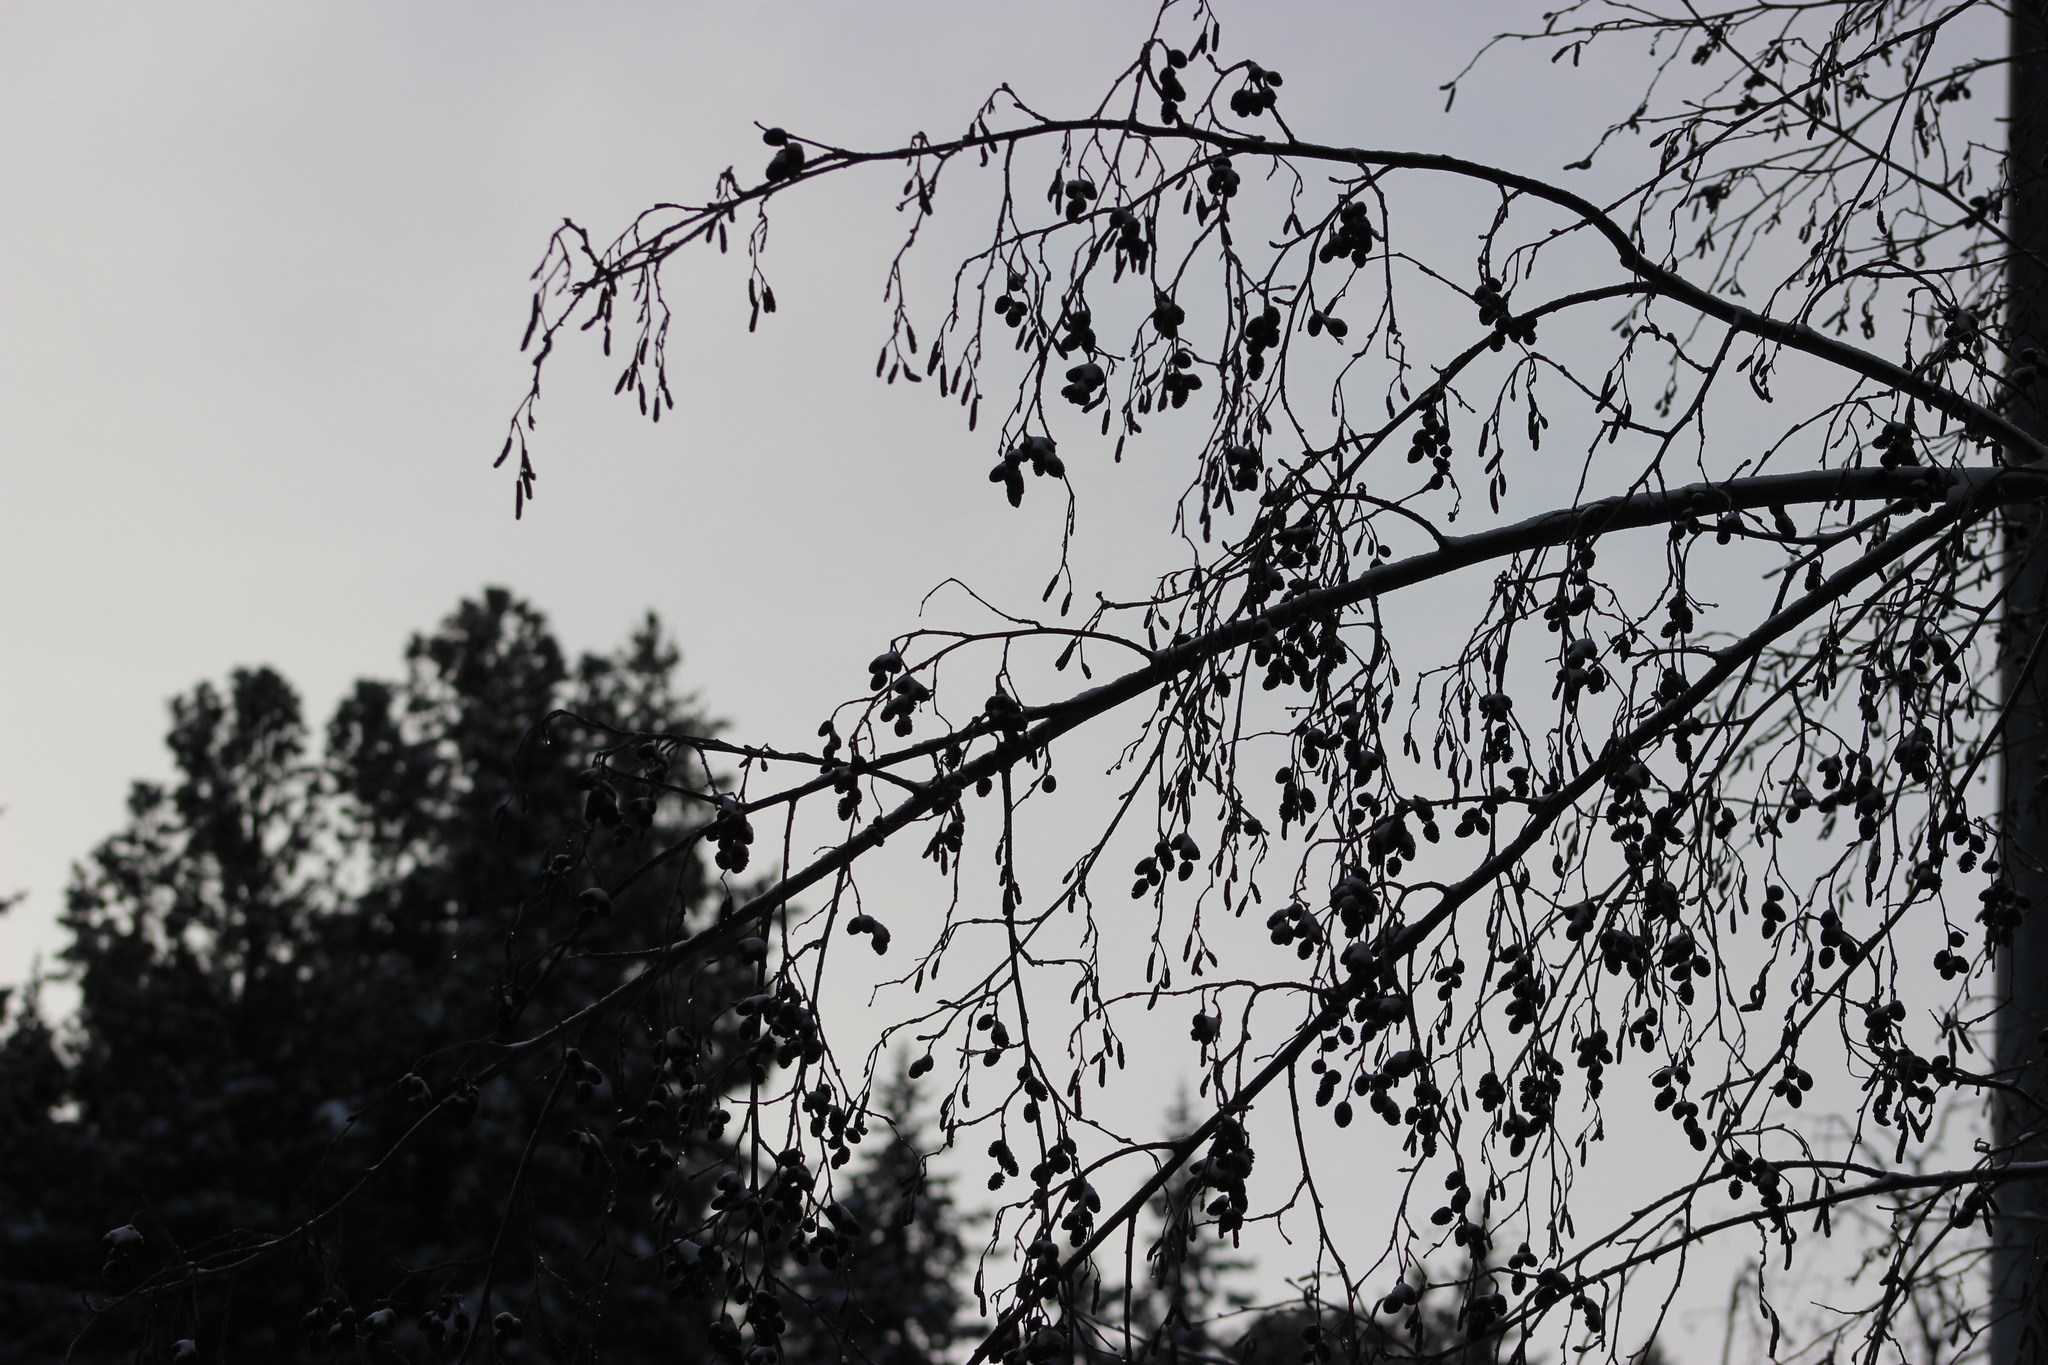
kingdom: Plantae
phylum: Tracheophyta
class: Magnoliopsida
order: Fagales
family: Betulaceae
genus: Alnus
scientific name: Alnus incana
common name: Grey alder
